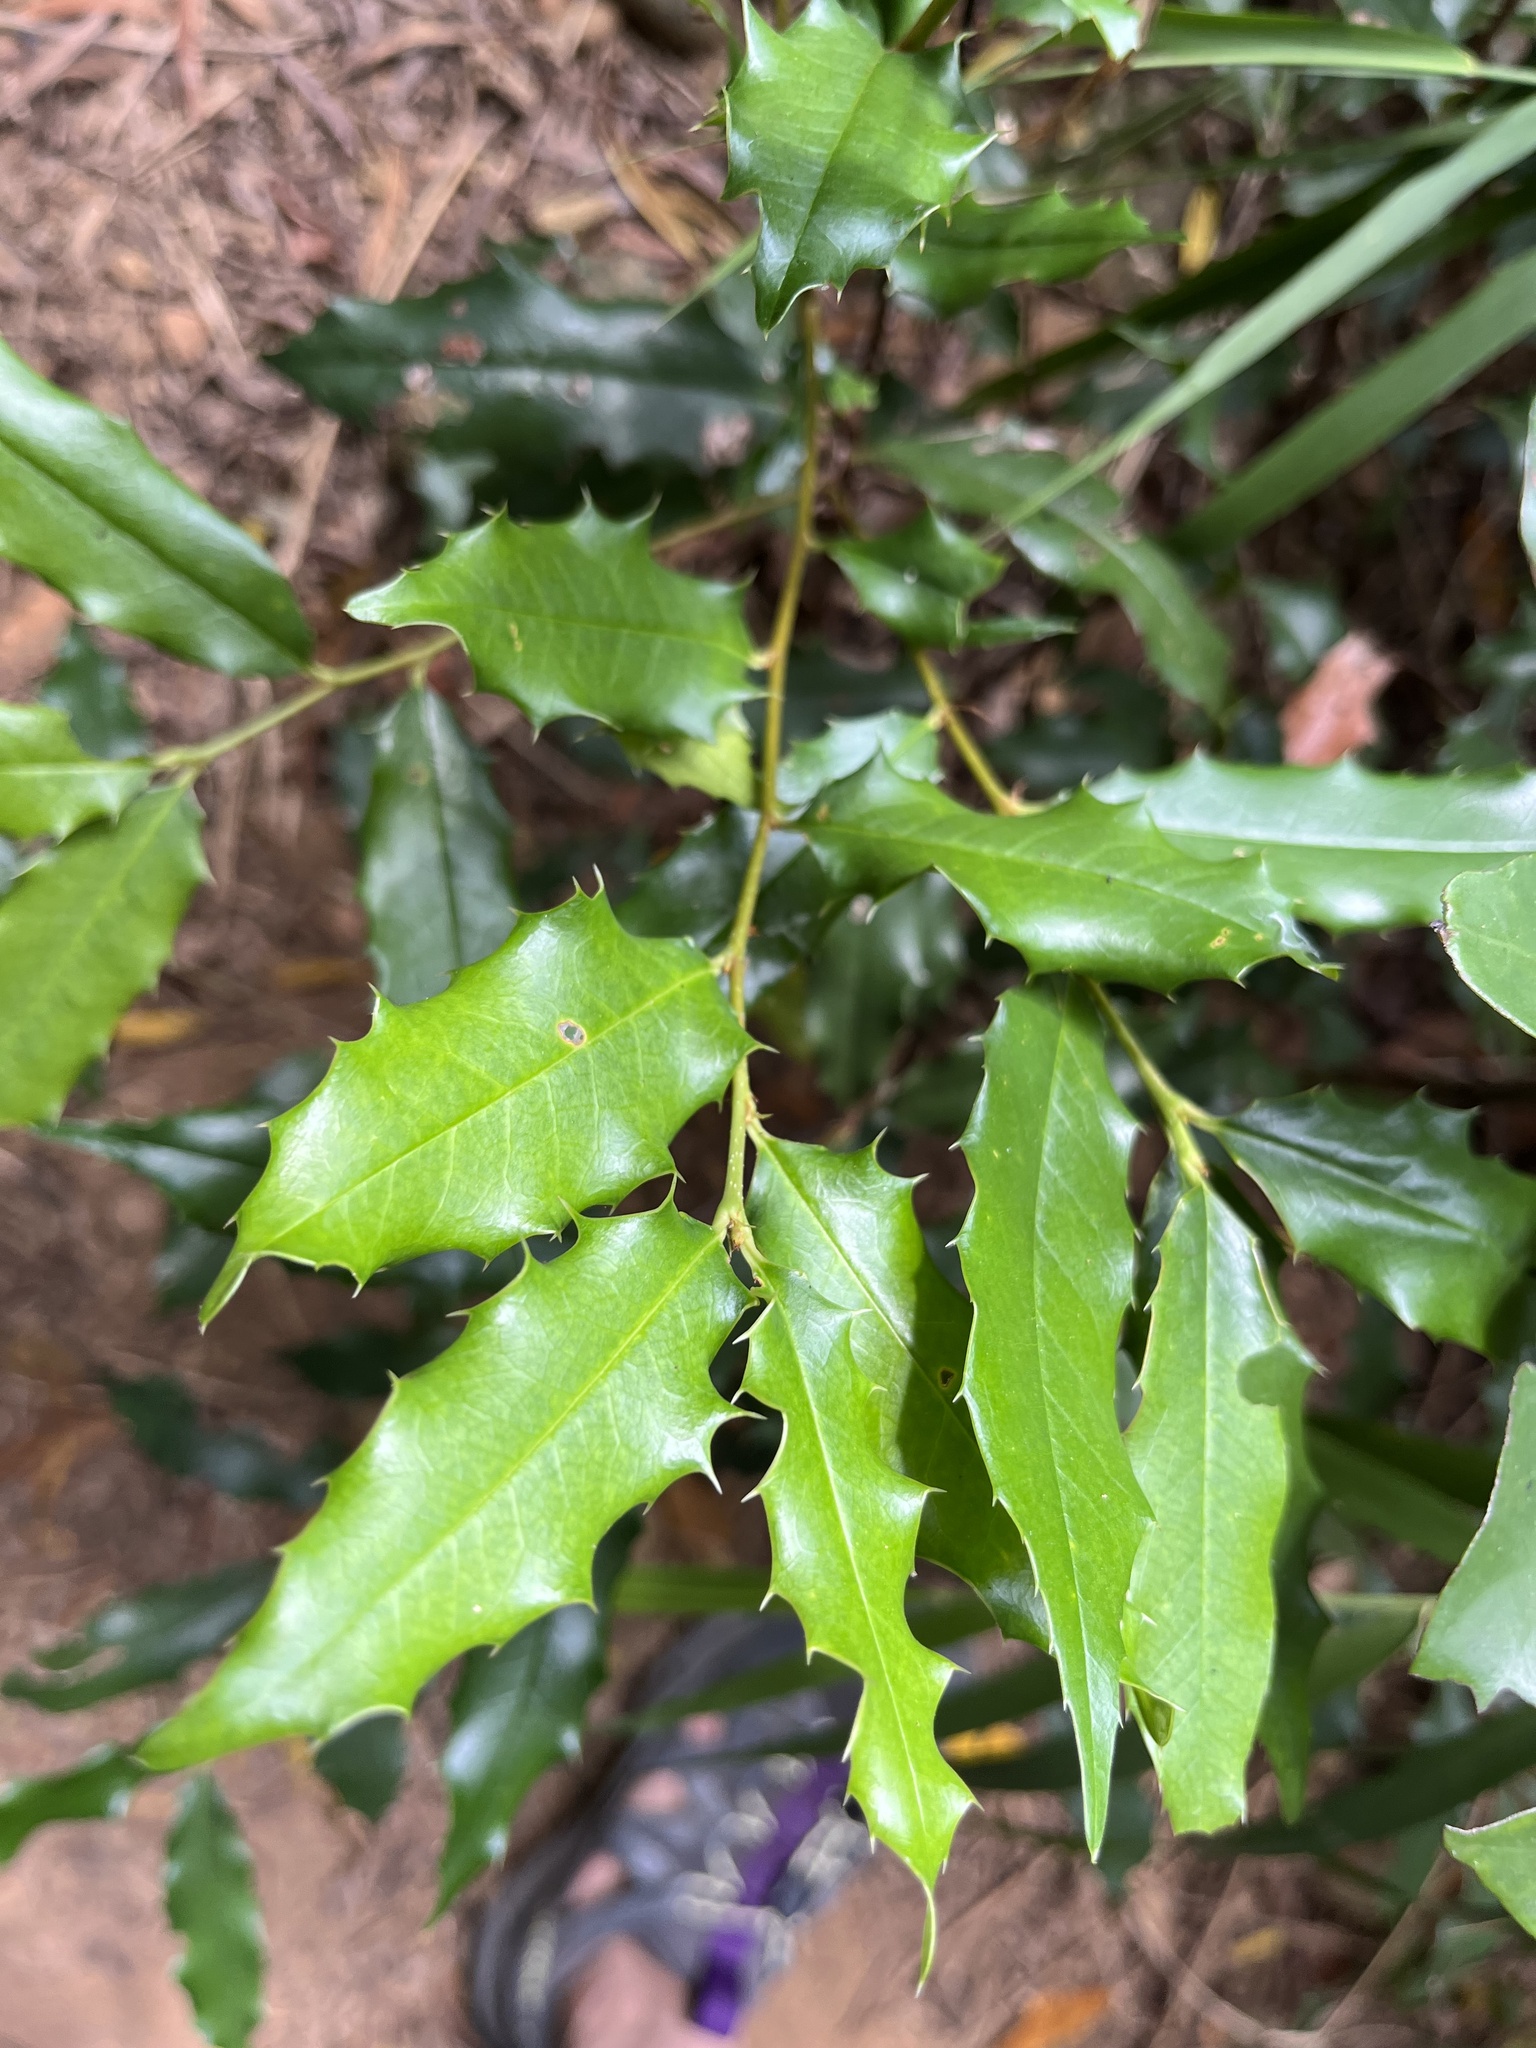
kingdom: Plantae
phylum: Tracheophyta
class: Magnoliopsida
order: Rosales
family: Rosaceae
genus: Prunus
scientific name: Prunus spinulosa
